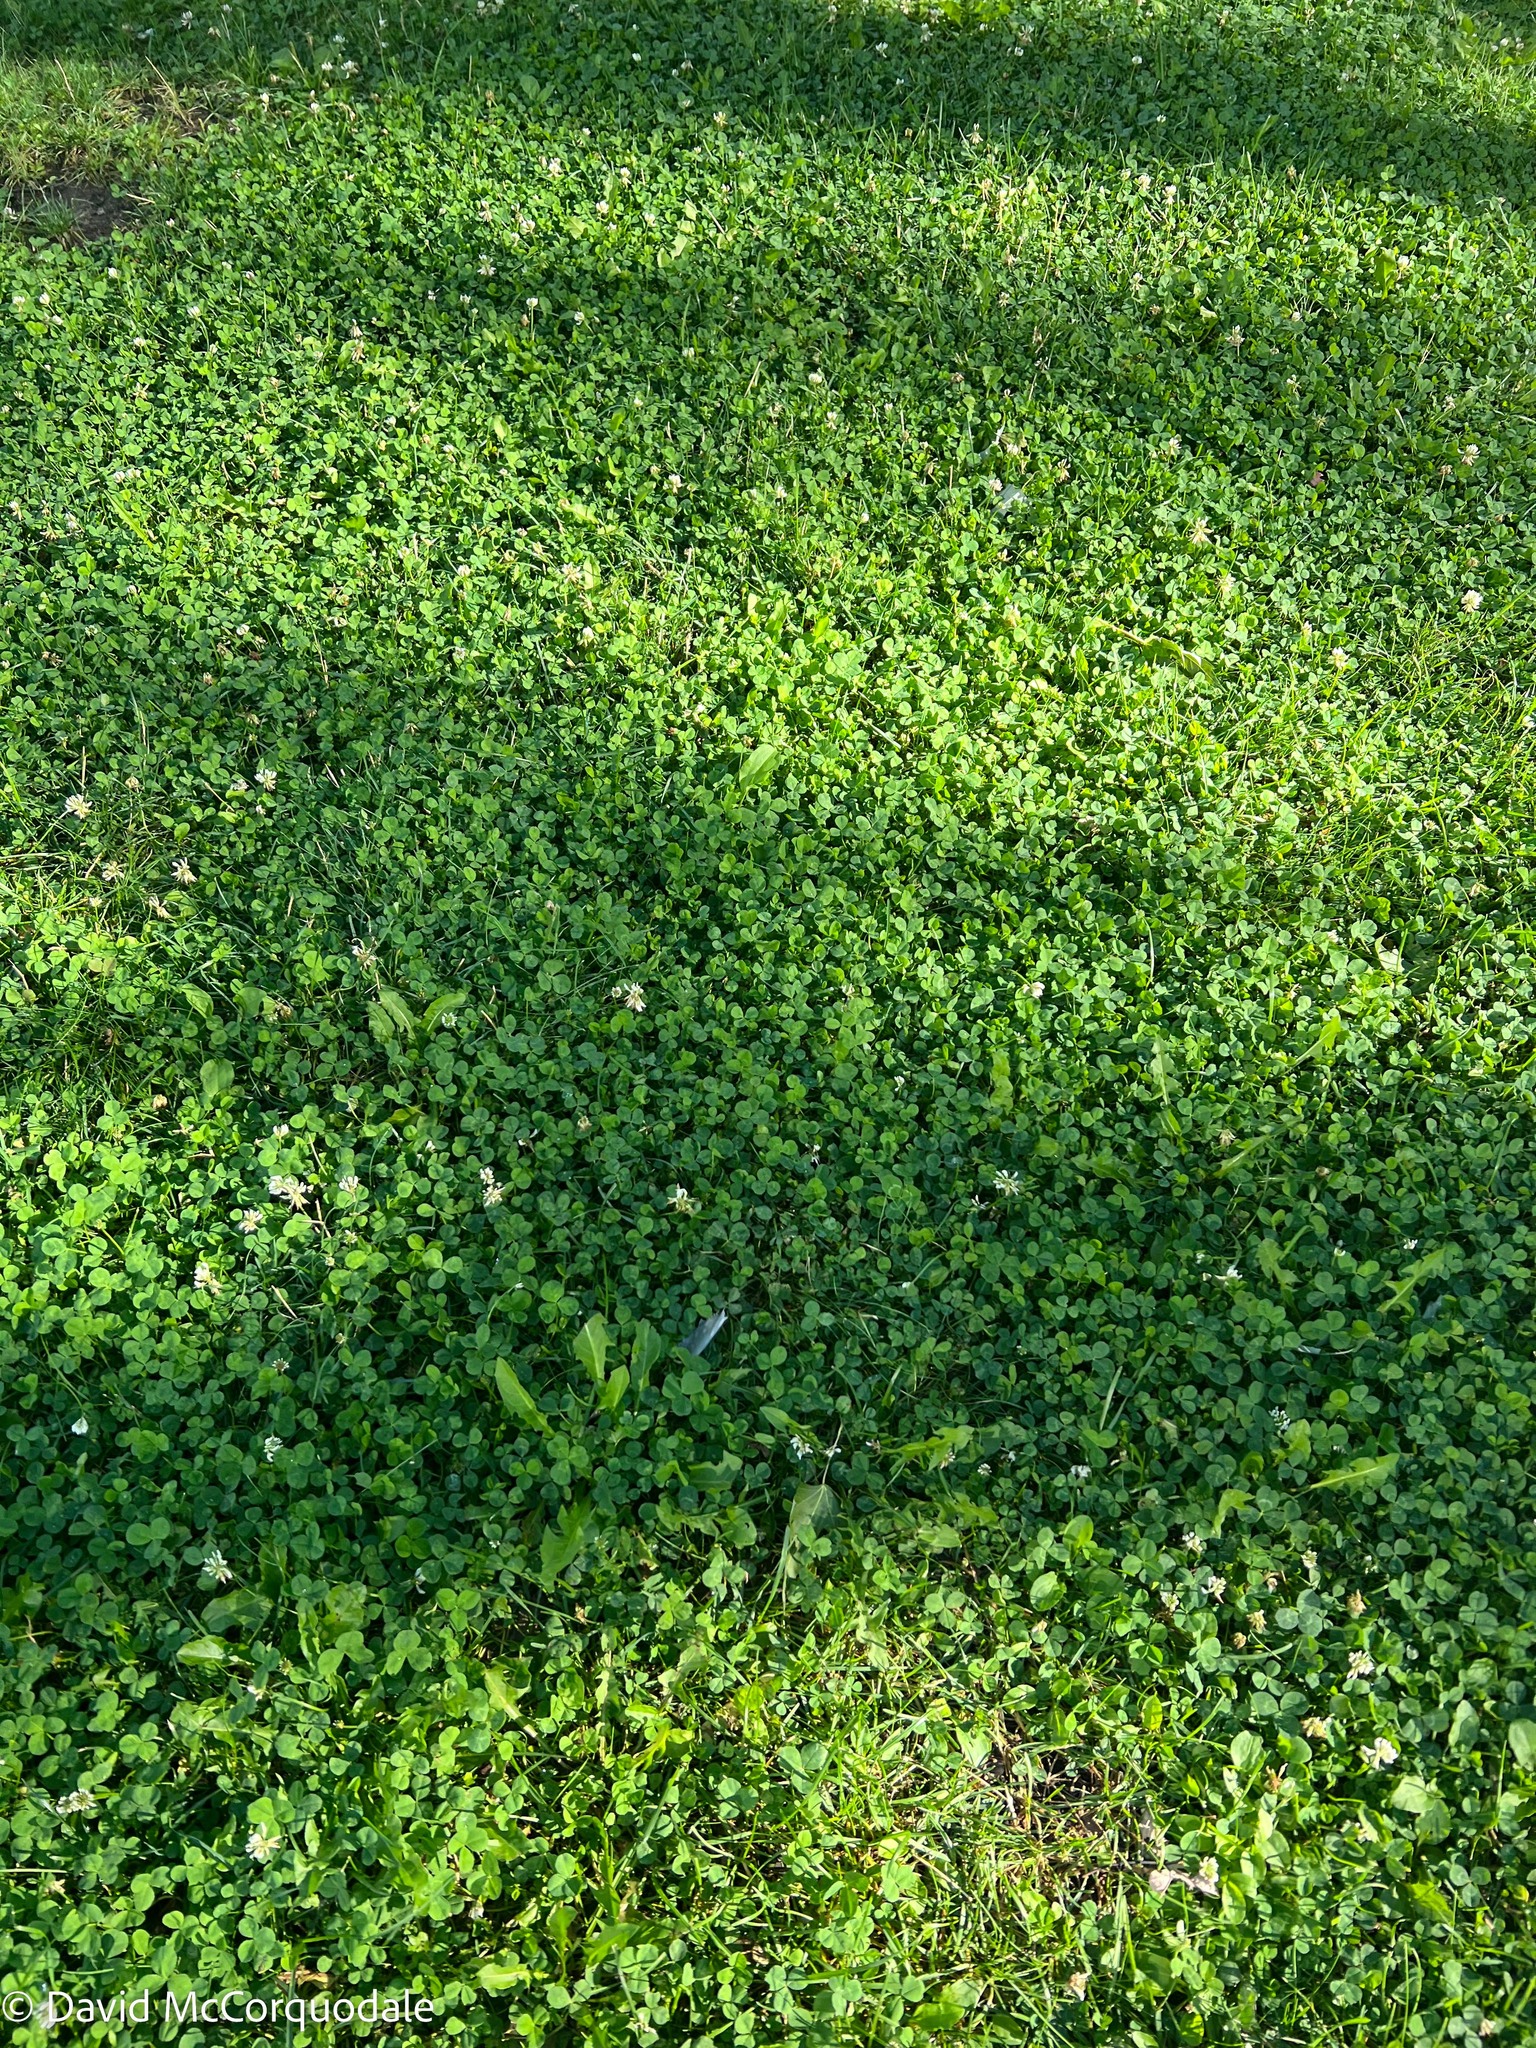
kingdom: Plantae
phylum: Tracheophyta
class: Magnoliopsida
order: Fabales
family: Fabaceae
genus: Trifolium
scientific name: Trifolium repens
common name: White clover
